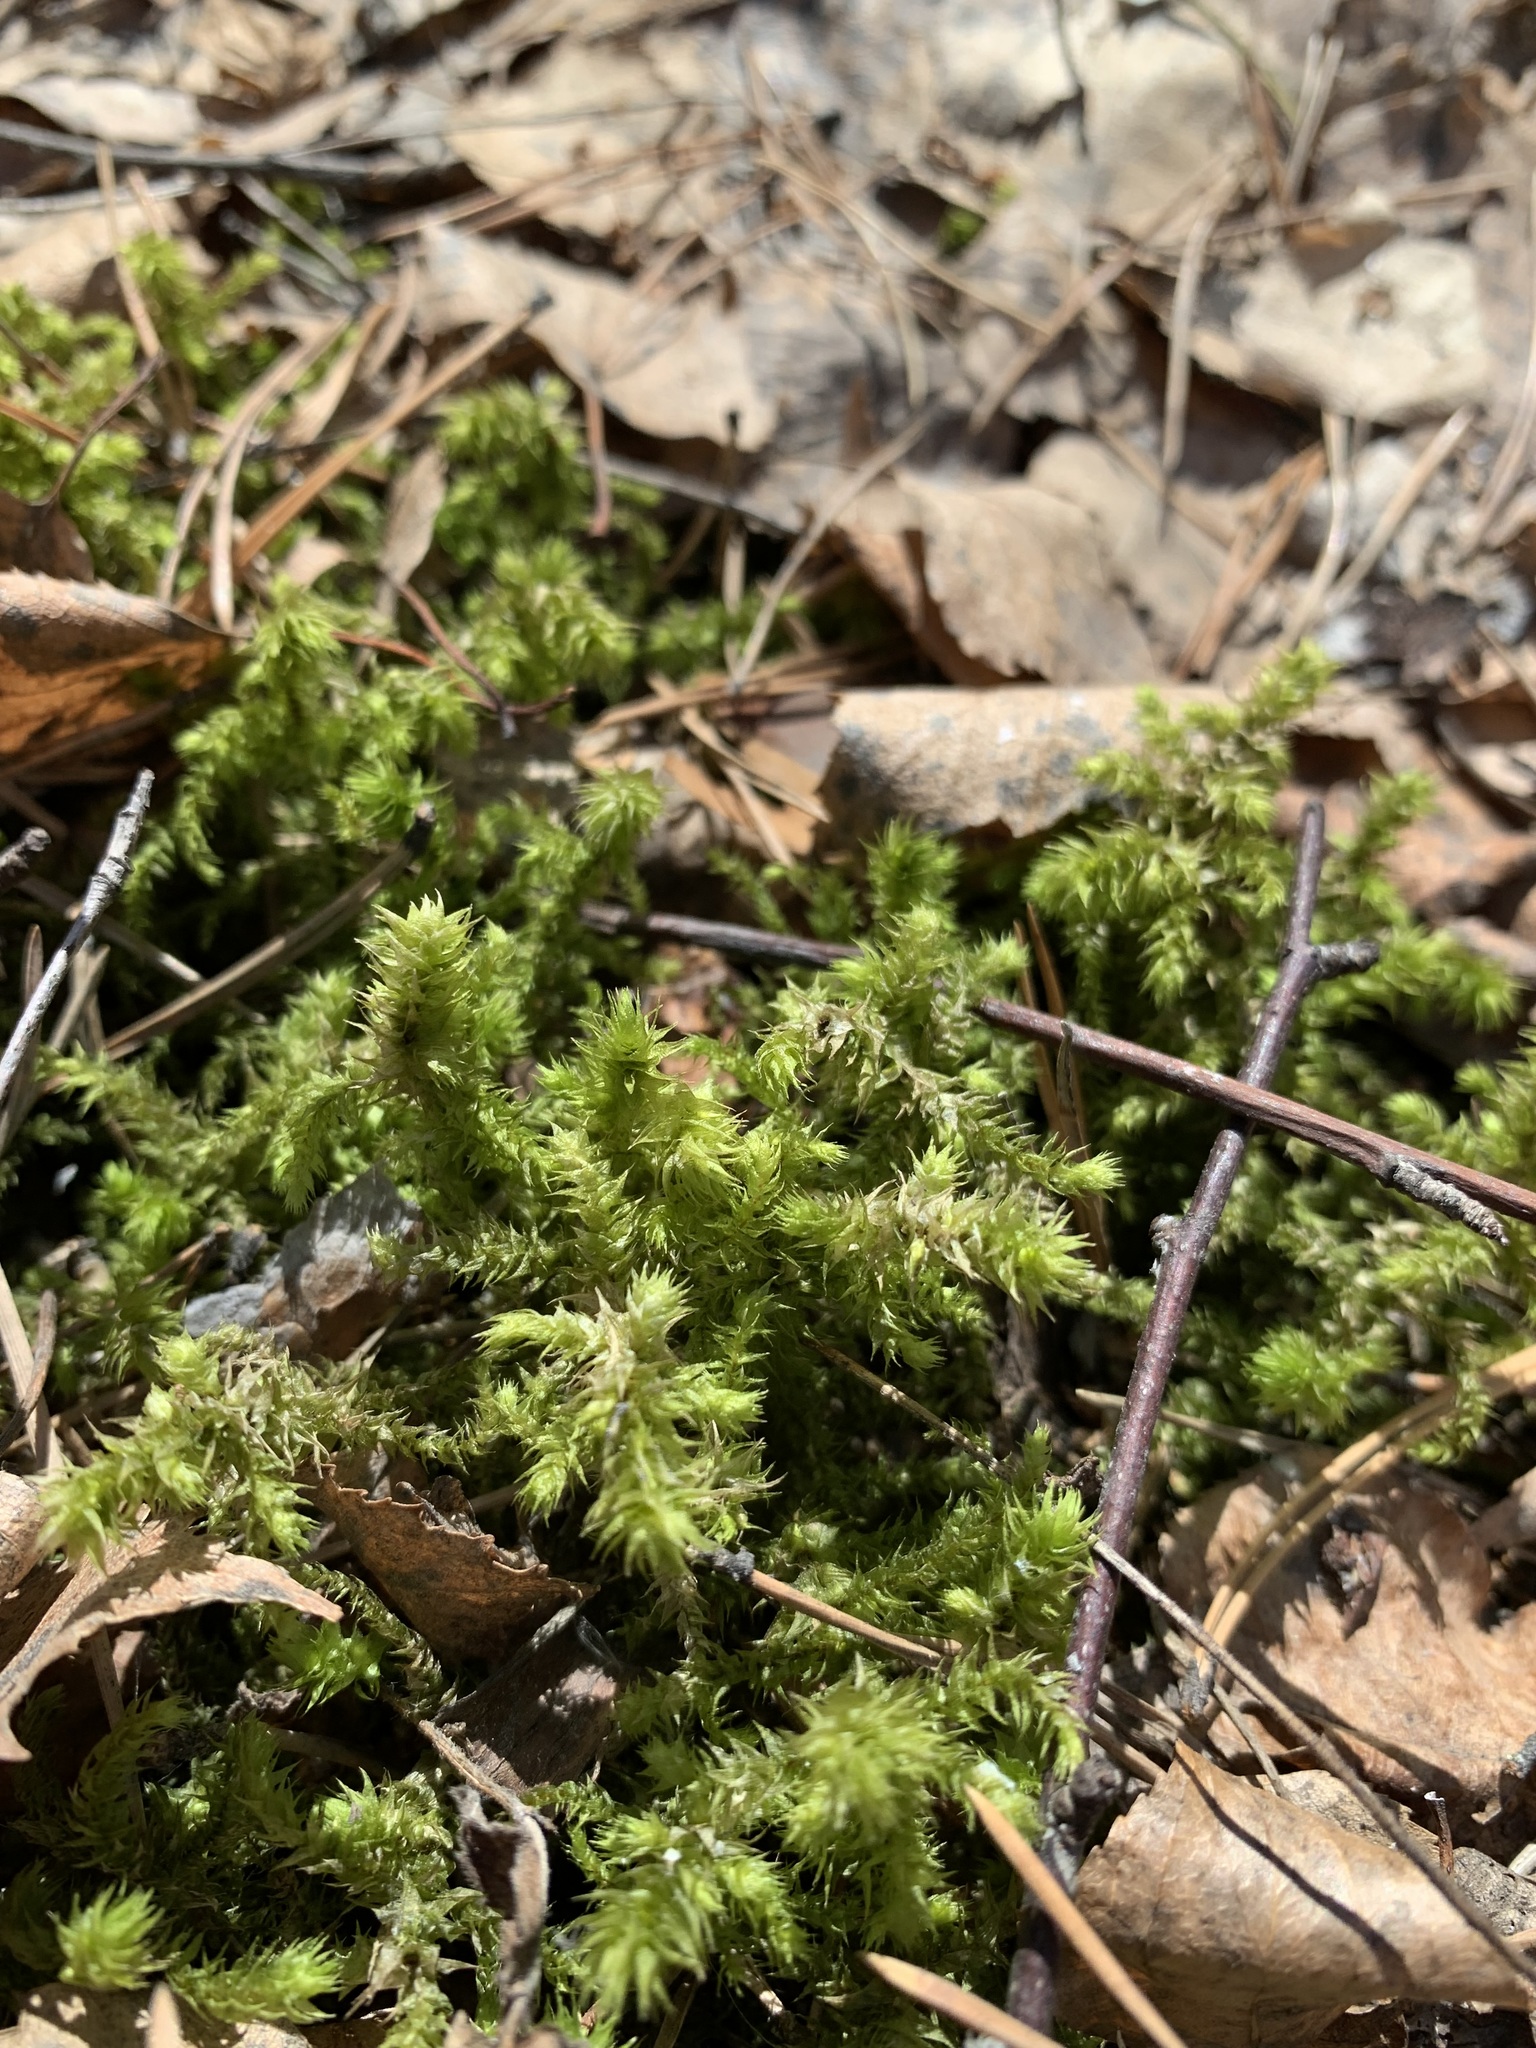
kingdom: Plantae
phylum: Bryophyta
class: Bryopsida
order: Hypnales
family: Hylocomiaceae
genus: Hylocomiadelphus
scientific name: Hylocomiadelphus triquetrus
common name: Rough goose neck moss
